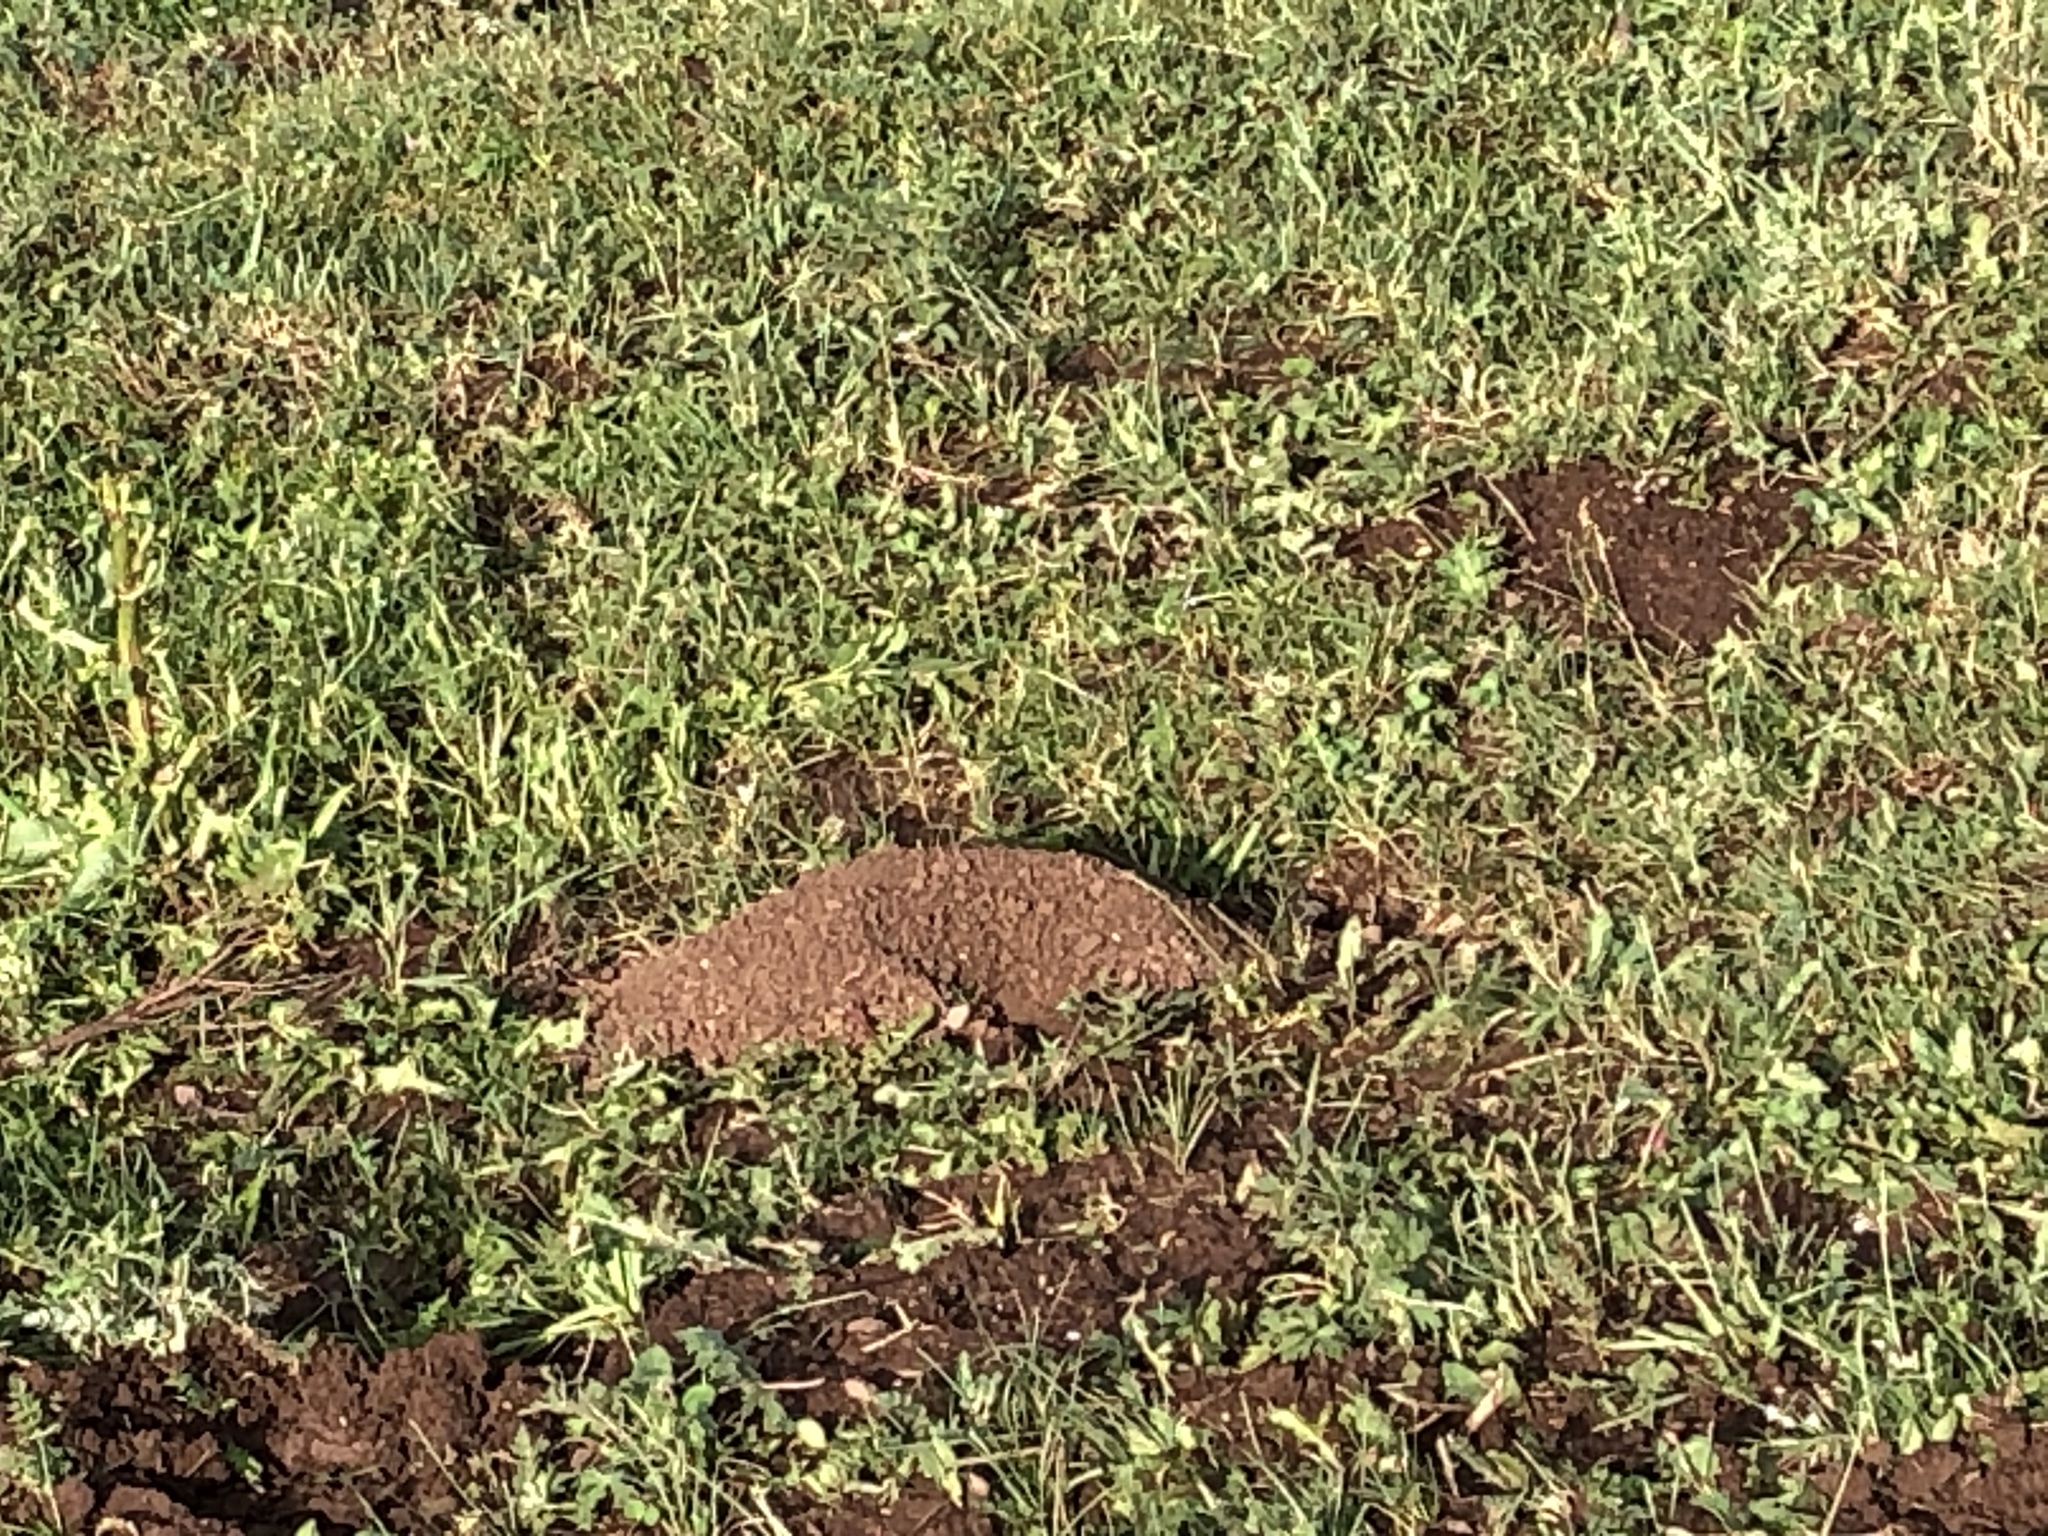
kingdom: Animalia
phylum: Chordata
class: Mammalia
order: Rodentia
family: Cricetidae
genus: Ellobius
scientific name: Ellobius tancrei
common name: Eastern mole vole
